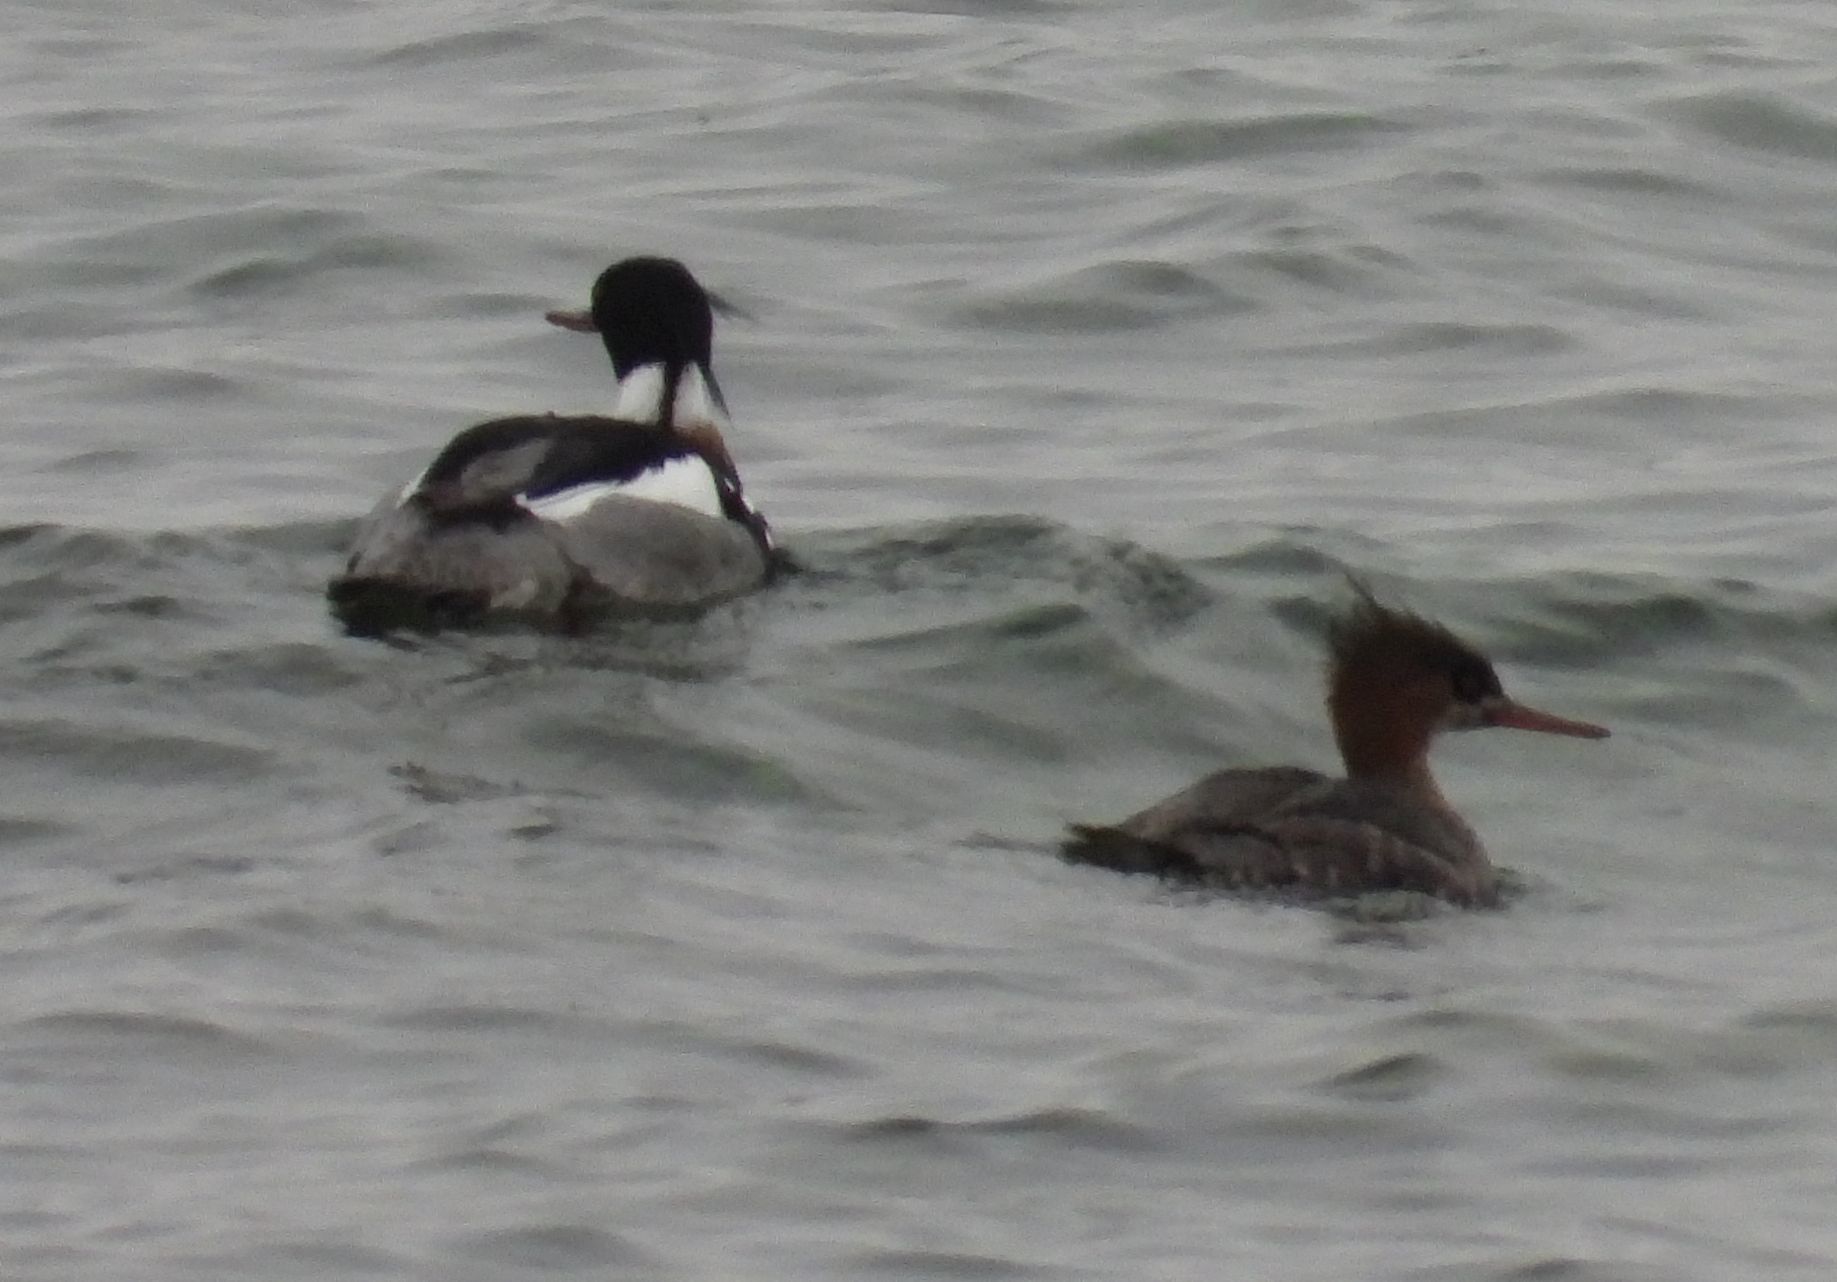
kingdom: Animalia
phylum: Chordata
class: Aves
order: Anseriformes
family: Anatidae
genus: Mergus
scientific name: Mergus serrator
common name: Red-breasted merganser
